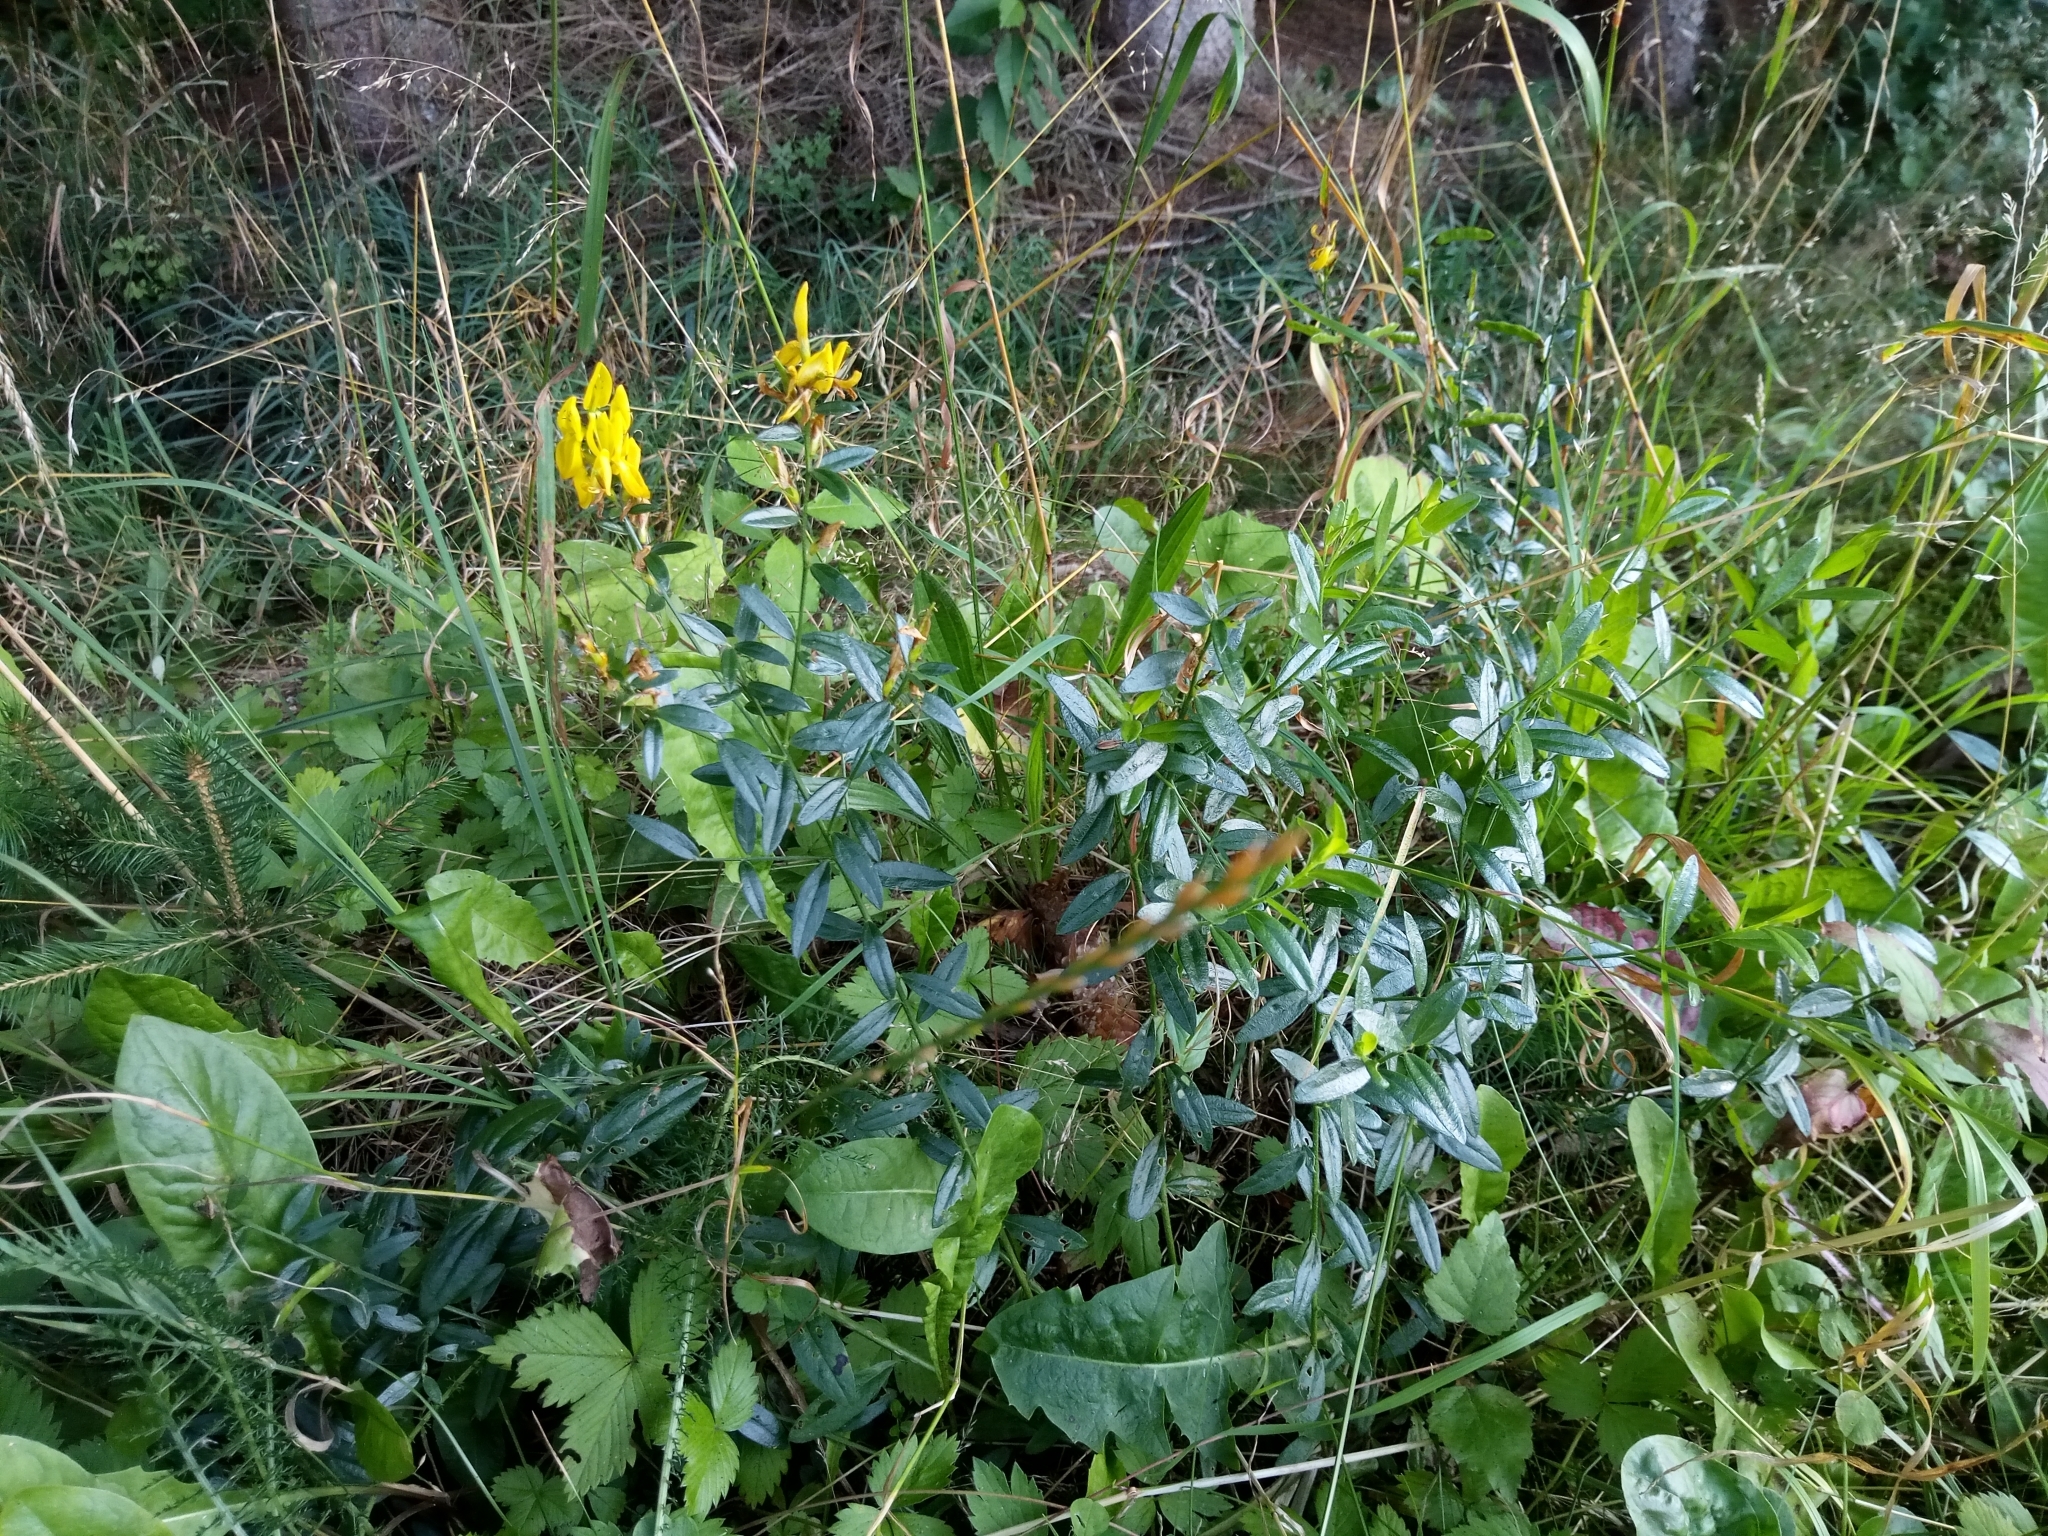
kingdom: Plantae
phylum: Tracheophyta
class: Magnoliopsida
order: Fabales
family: Fabaceae
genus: Genista
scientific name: Genista tinctoria
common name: Dyer's greenweed
